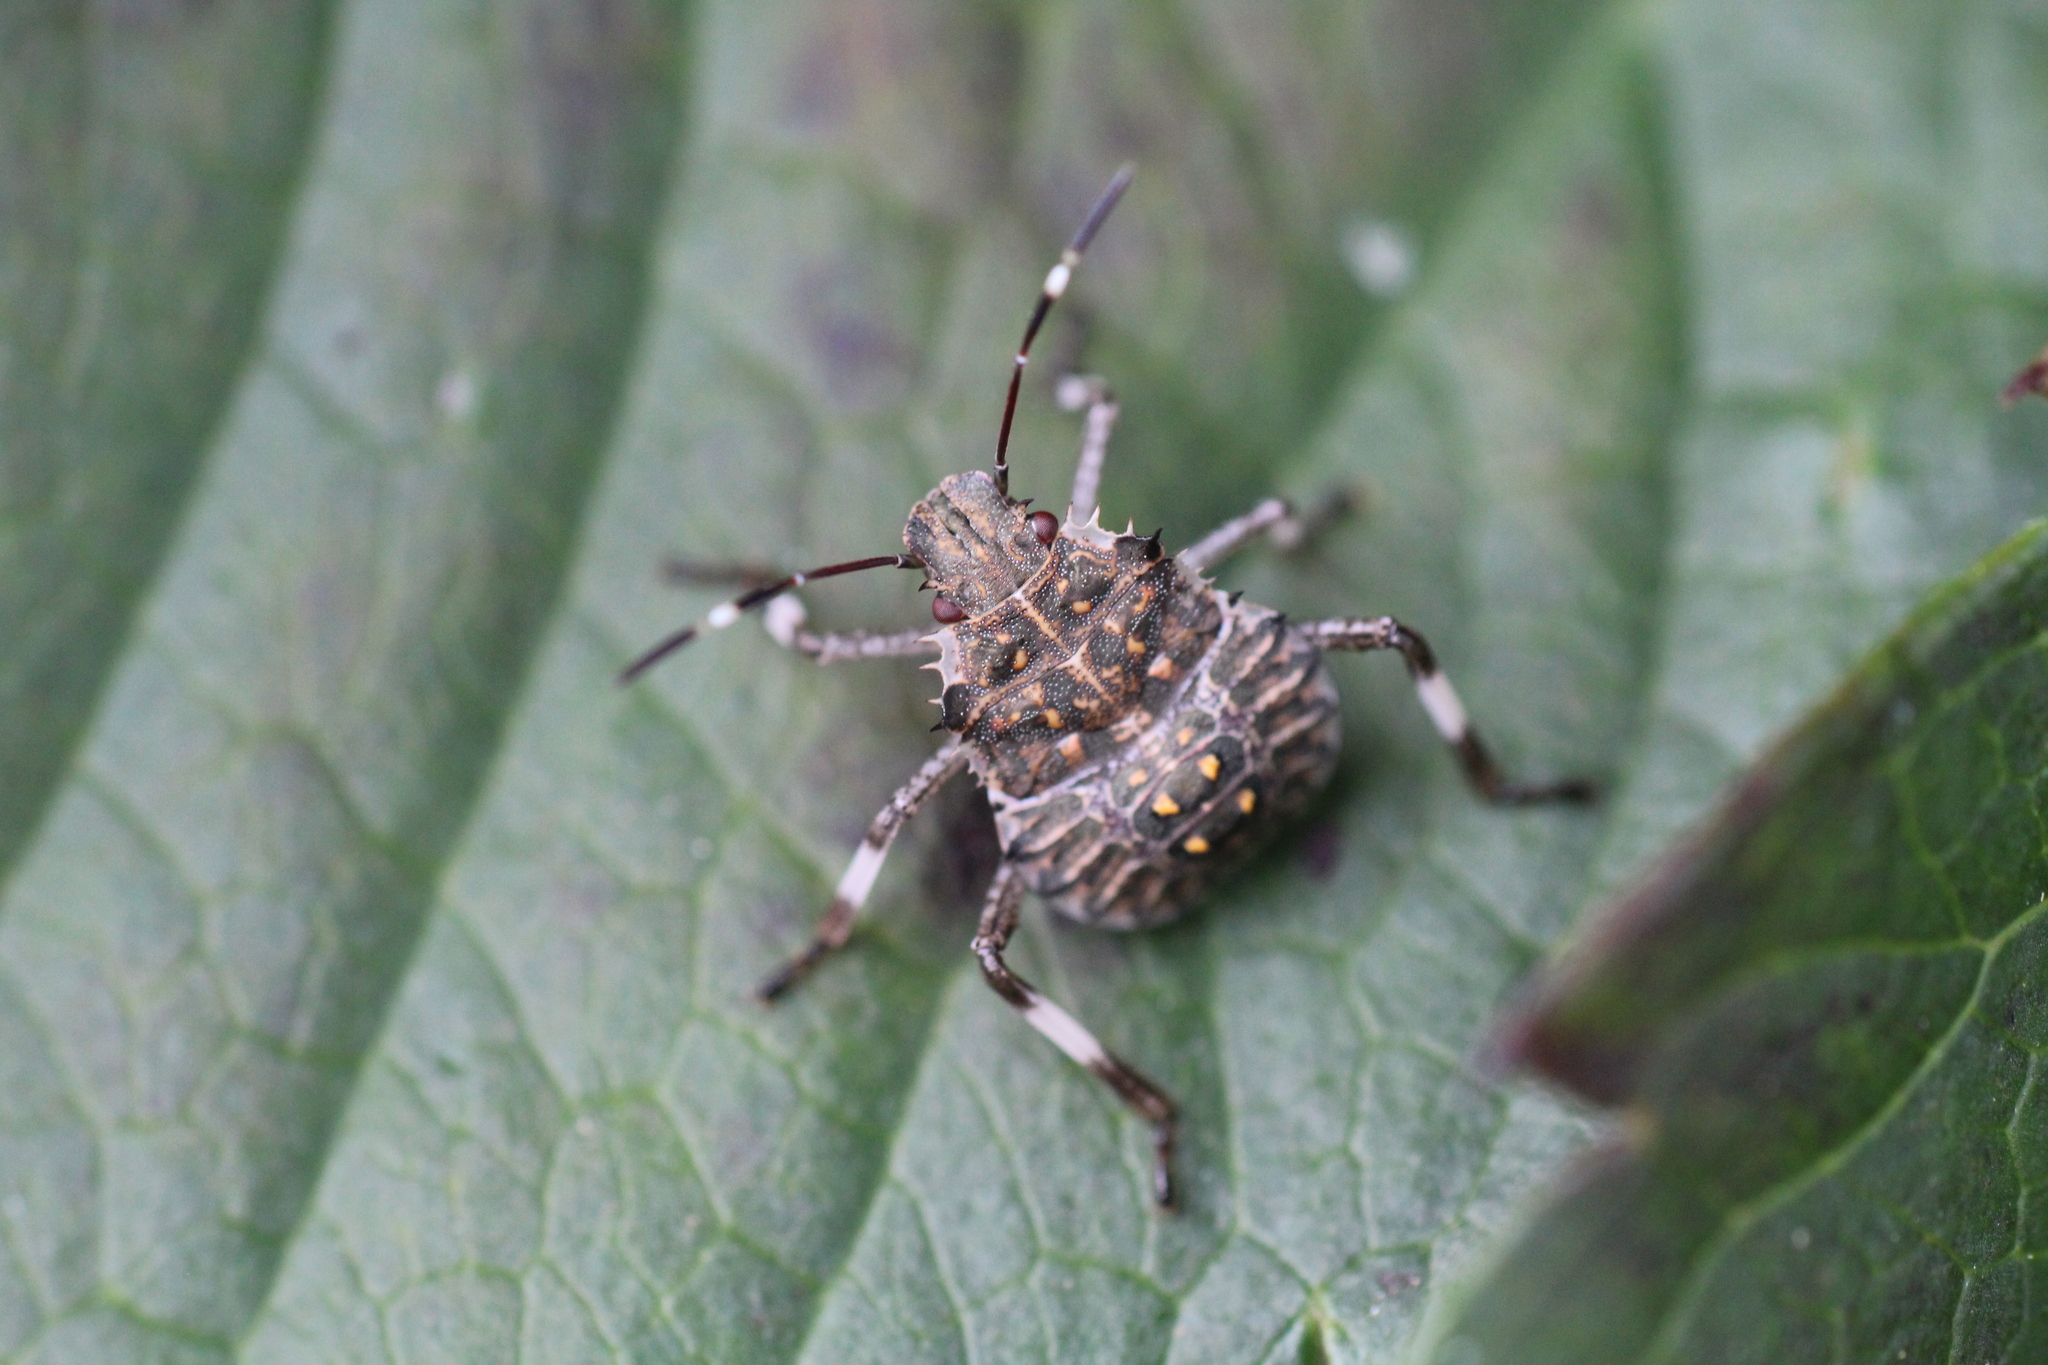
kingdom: Animalia
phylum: Arthropoda
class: Insecta
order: Hemiptera
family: Pentatomidae
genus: Halyomorpha
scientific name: Halyomorpha halys
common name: Brown marmorated stink bug
